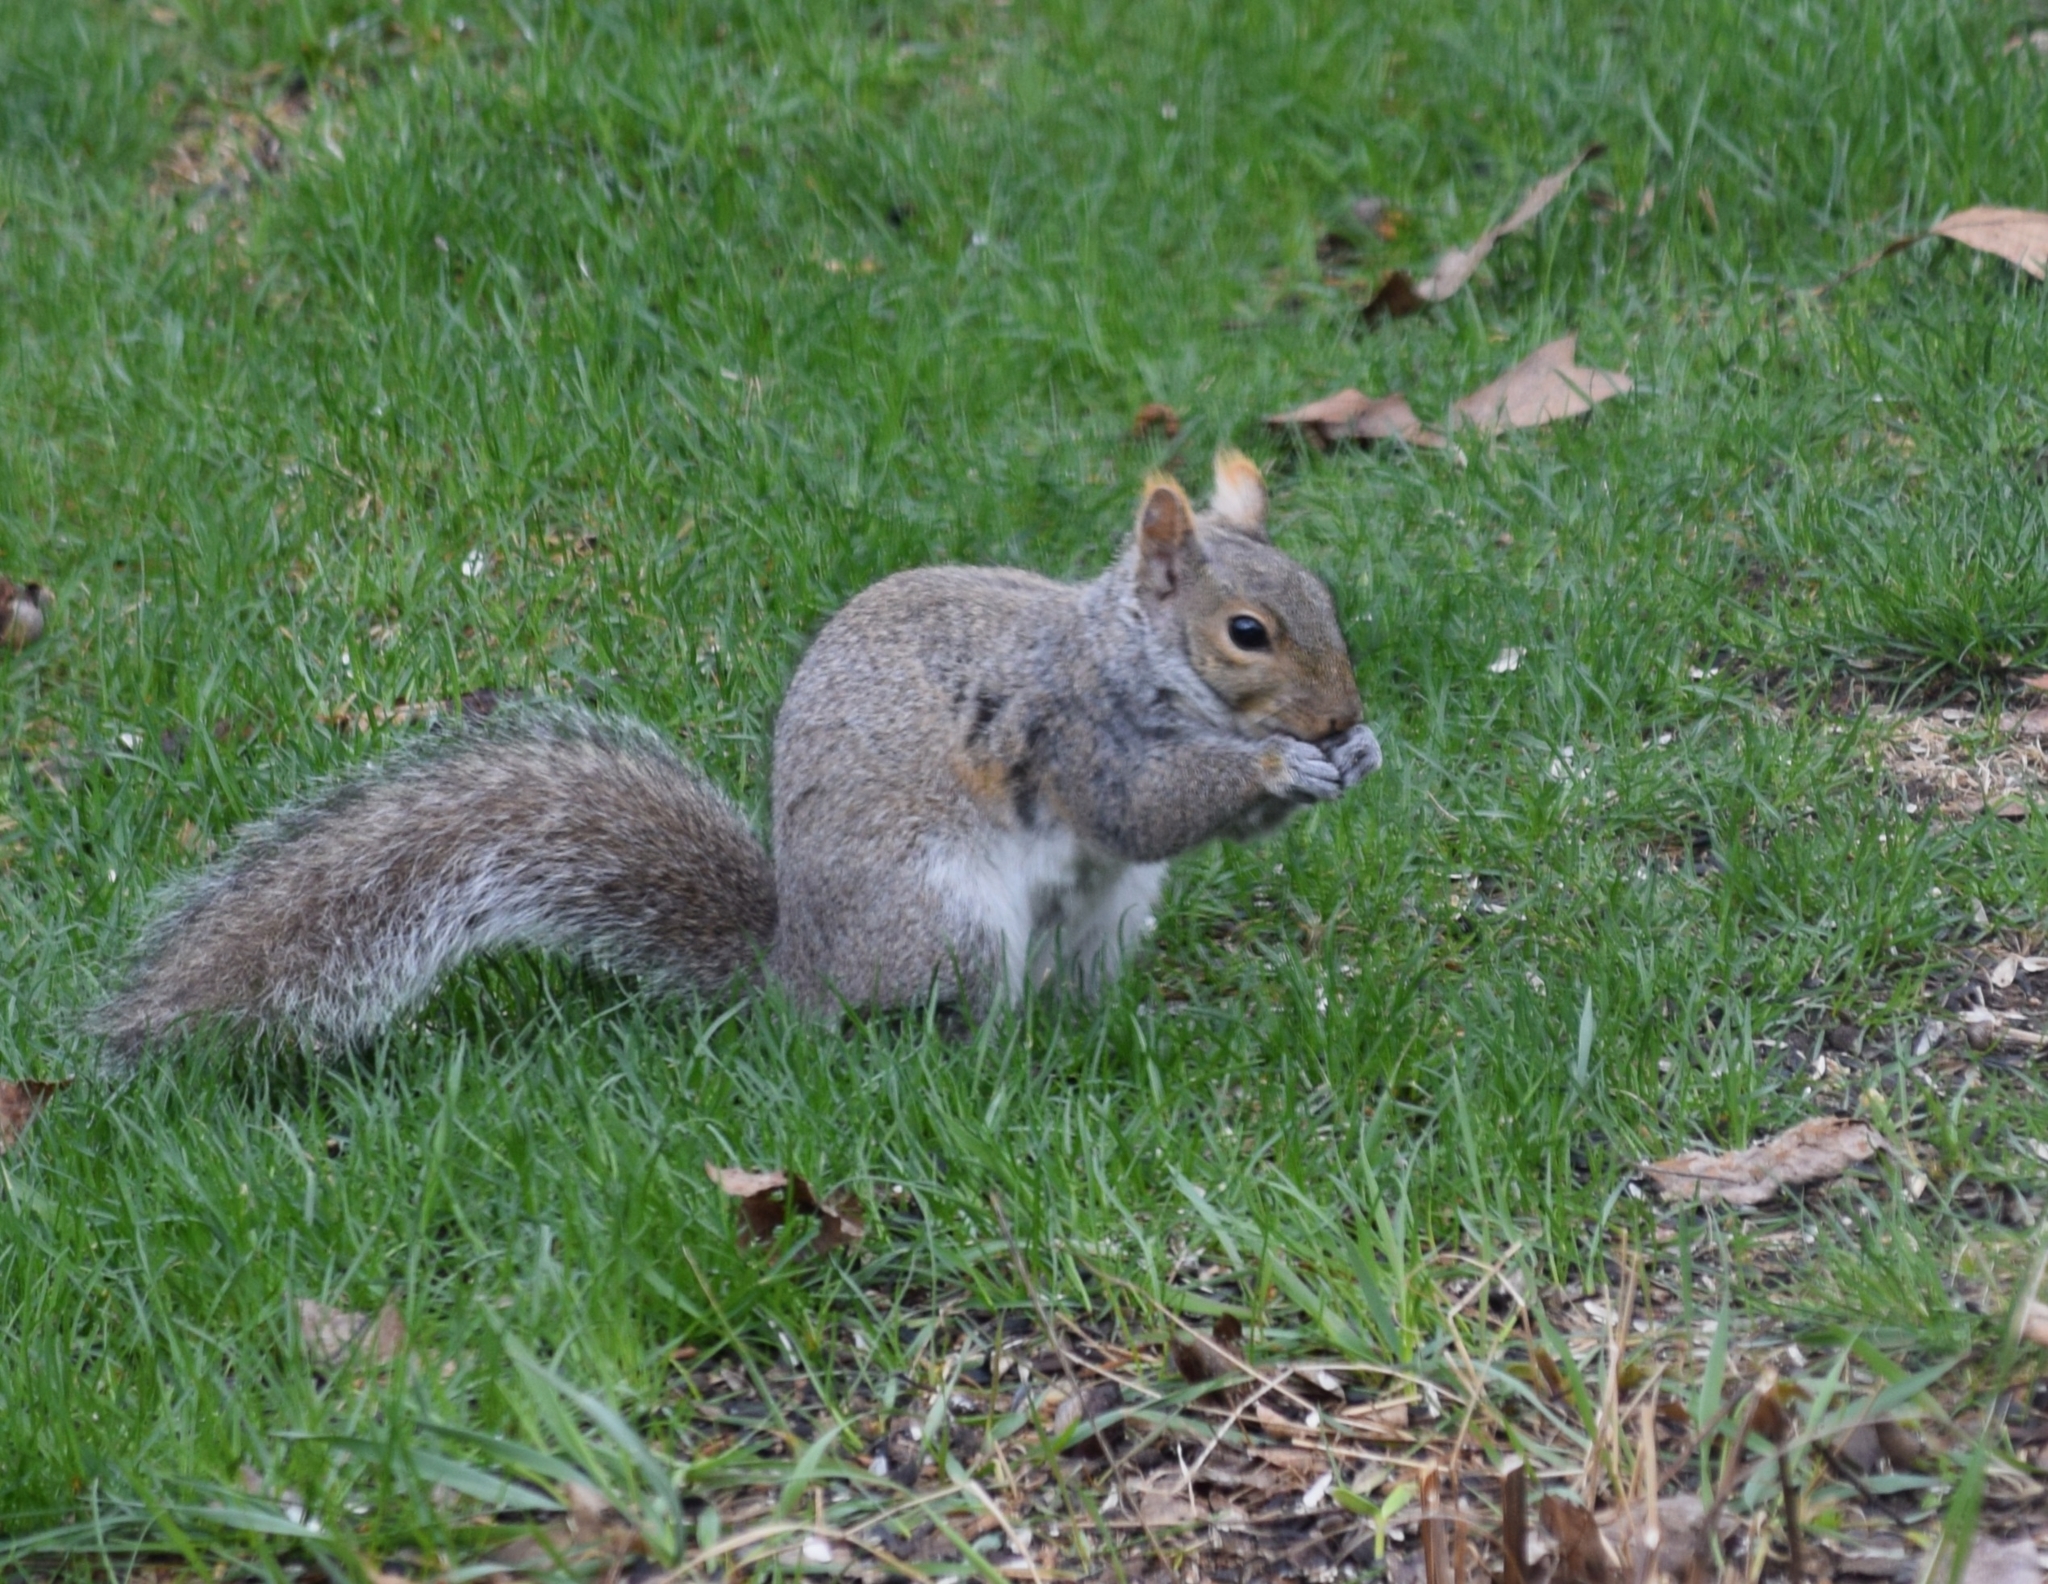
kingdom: Animalia
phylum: Chordata
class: Mammalia
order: Rodentia
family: Sciuridae
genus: Sciurus
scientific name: Sciurus carolinensis
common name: Eastern gray squirrel
